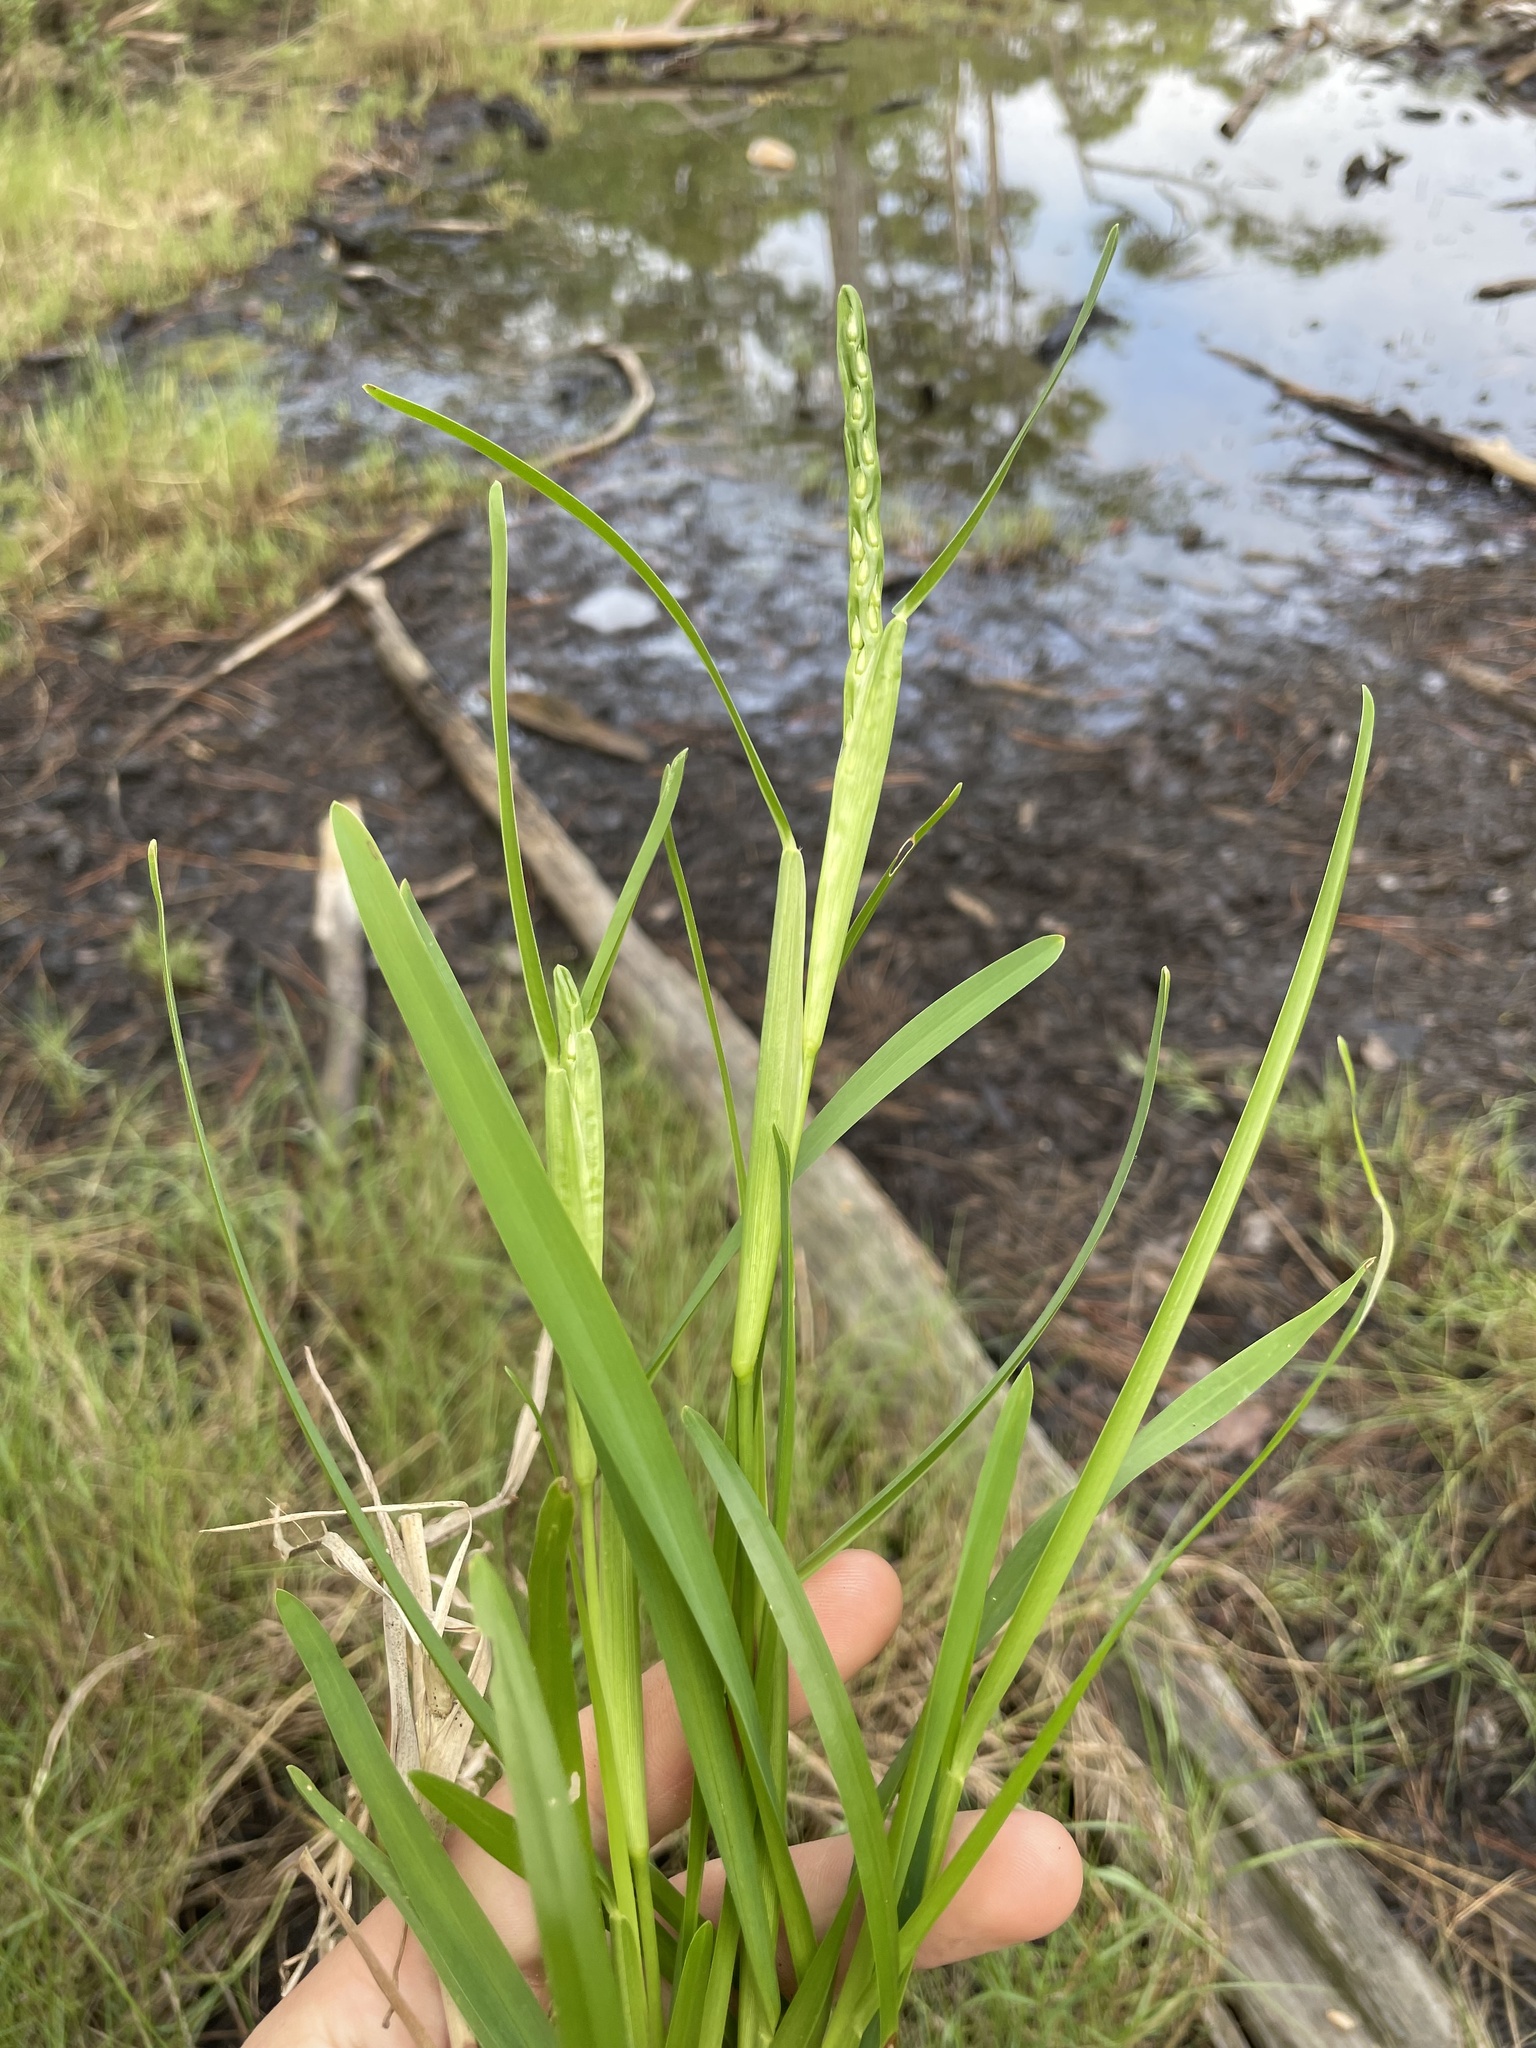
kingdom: Plantae
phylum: Tracheophyta
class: Liliopsida
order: Poales
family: Poaceae
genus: Stenotaphrum
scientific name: Stenotaphrum secundatum
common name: St. augustine grass
